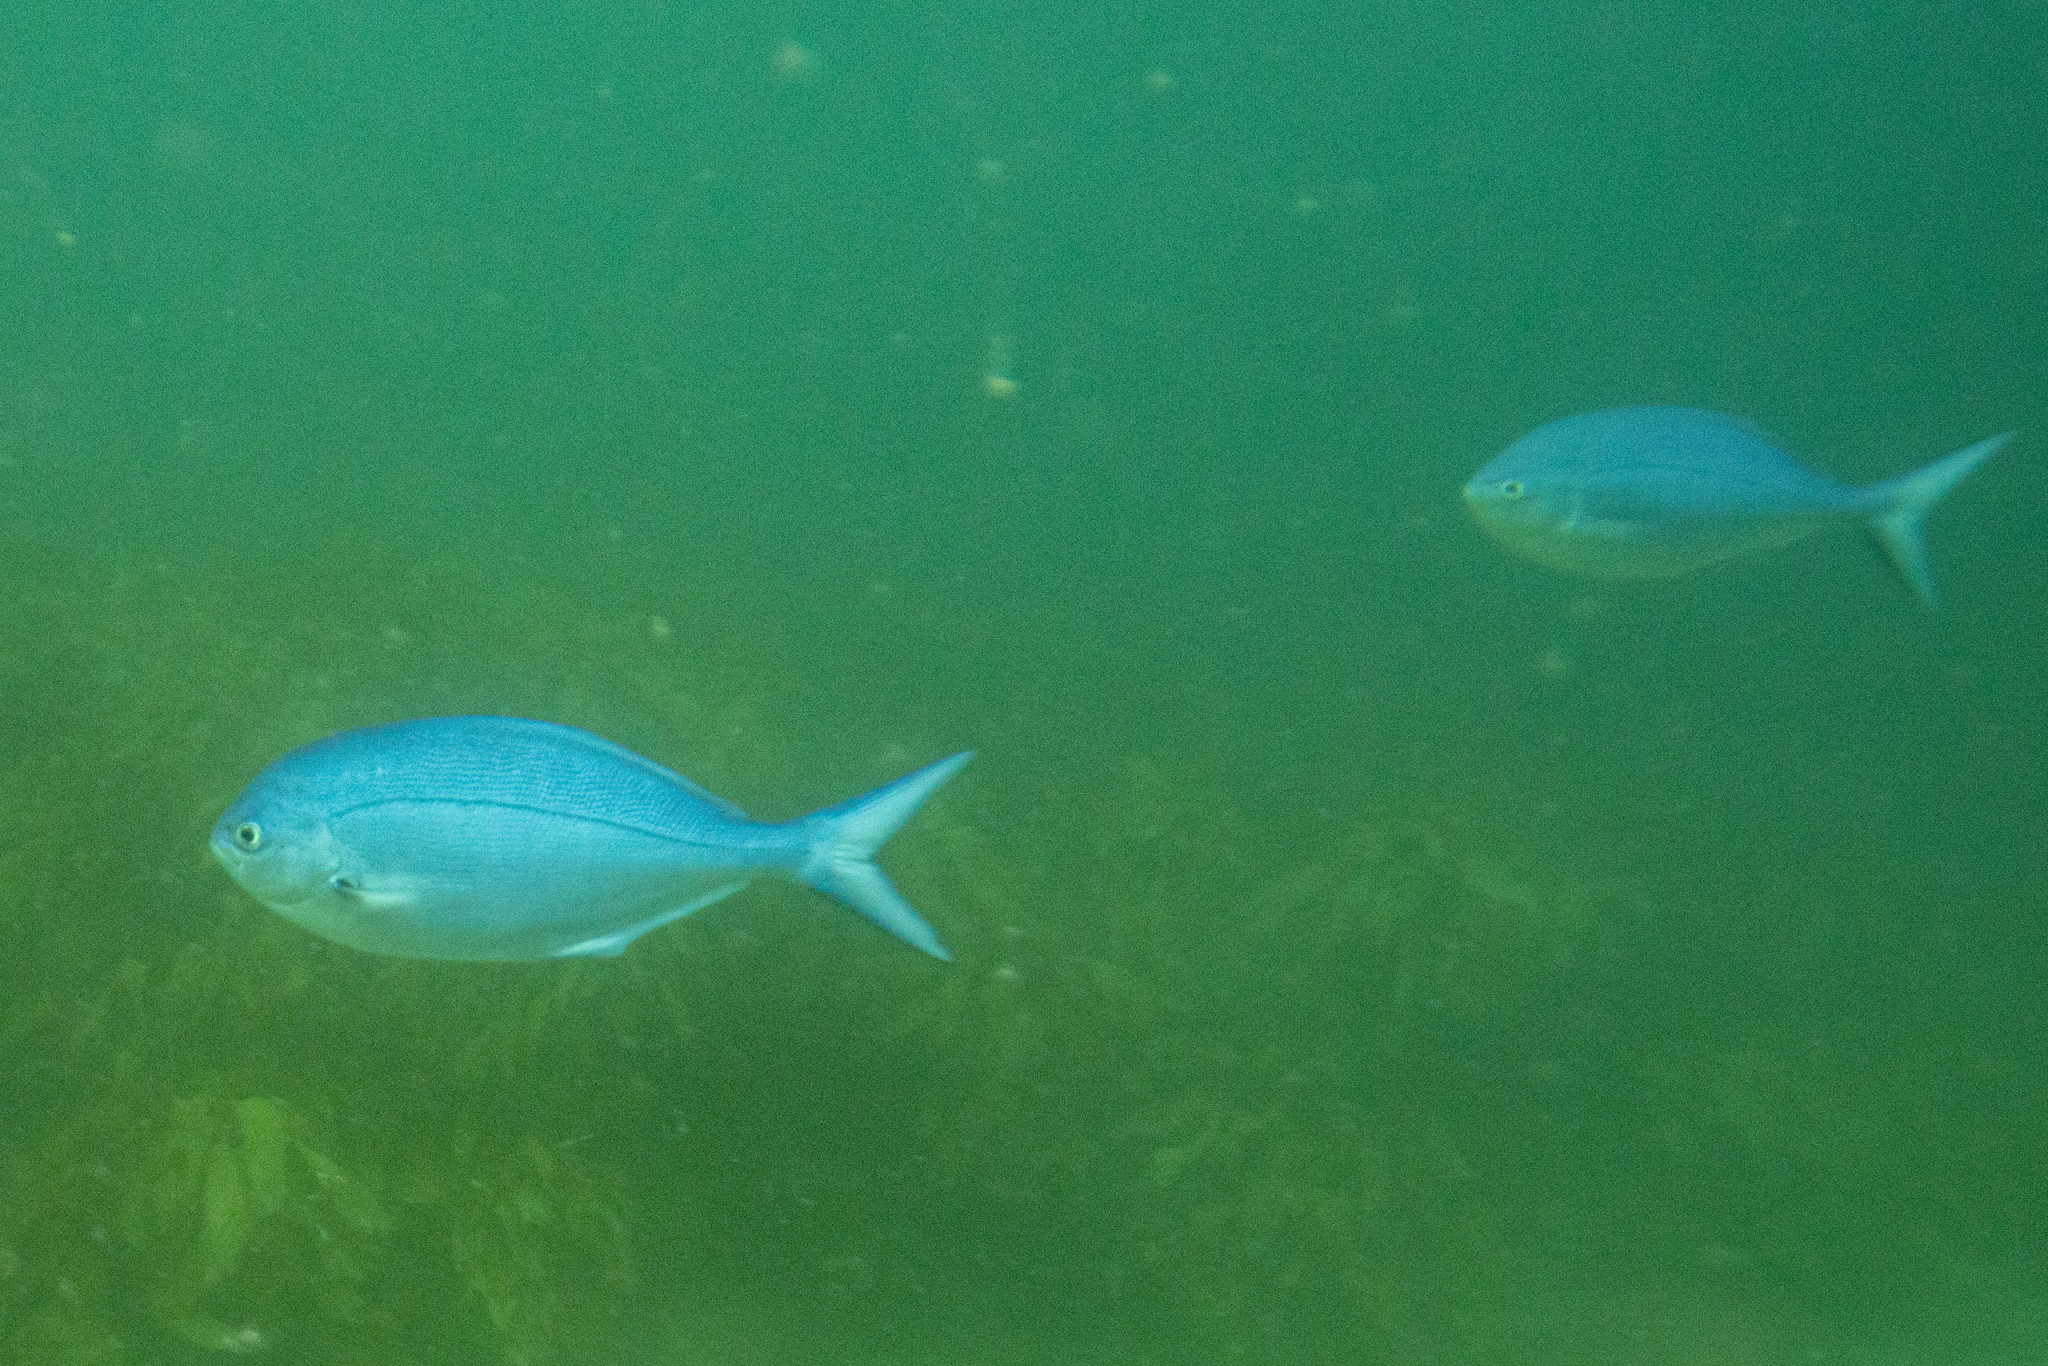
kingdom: Animalia
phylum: Chordata
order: Perciformes
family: Kyphosidae
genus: Scorpis
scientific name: Scorpis violacea
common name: Blue maomao
